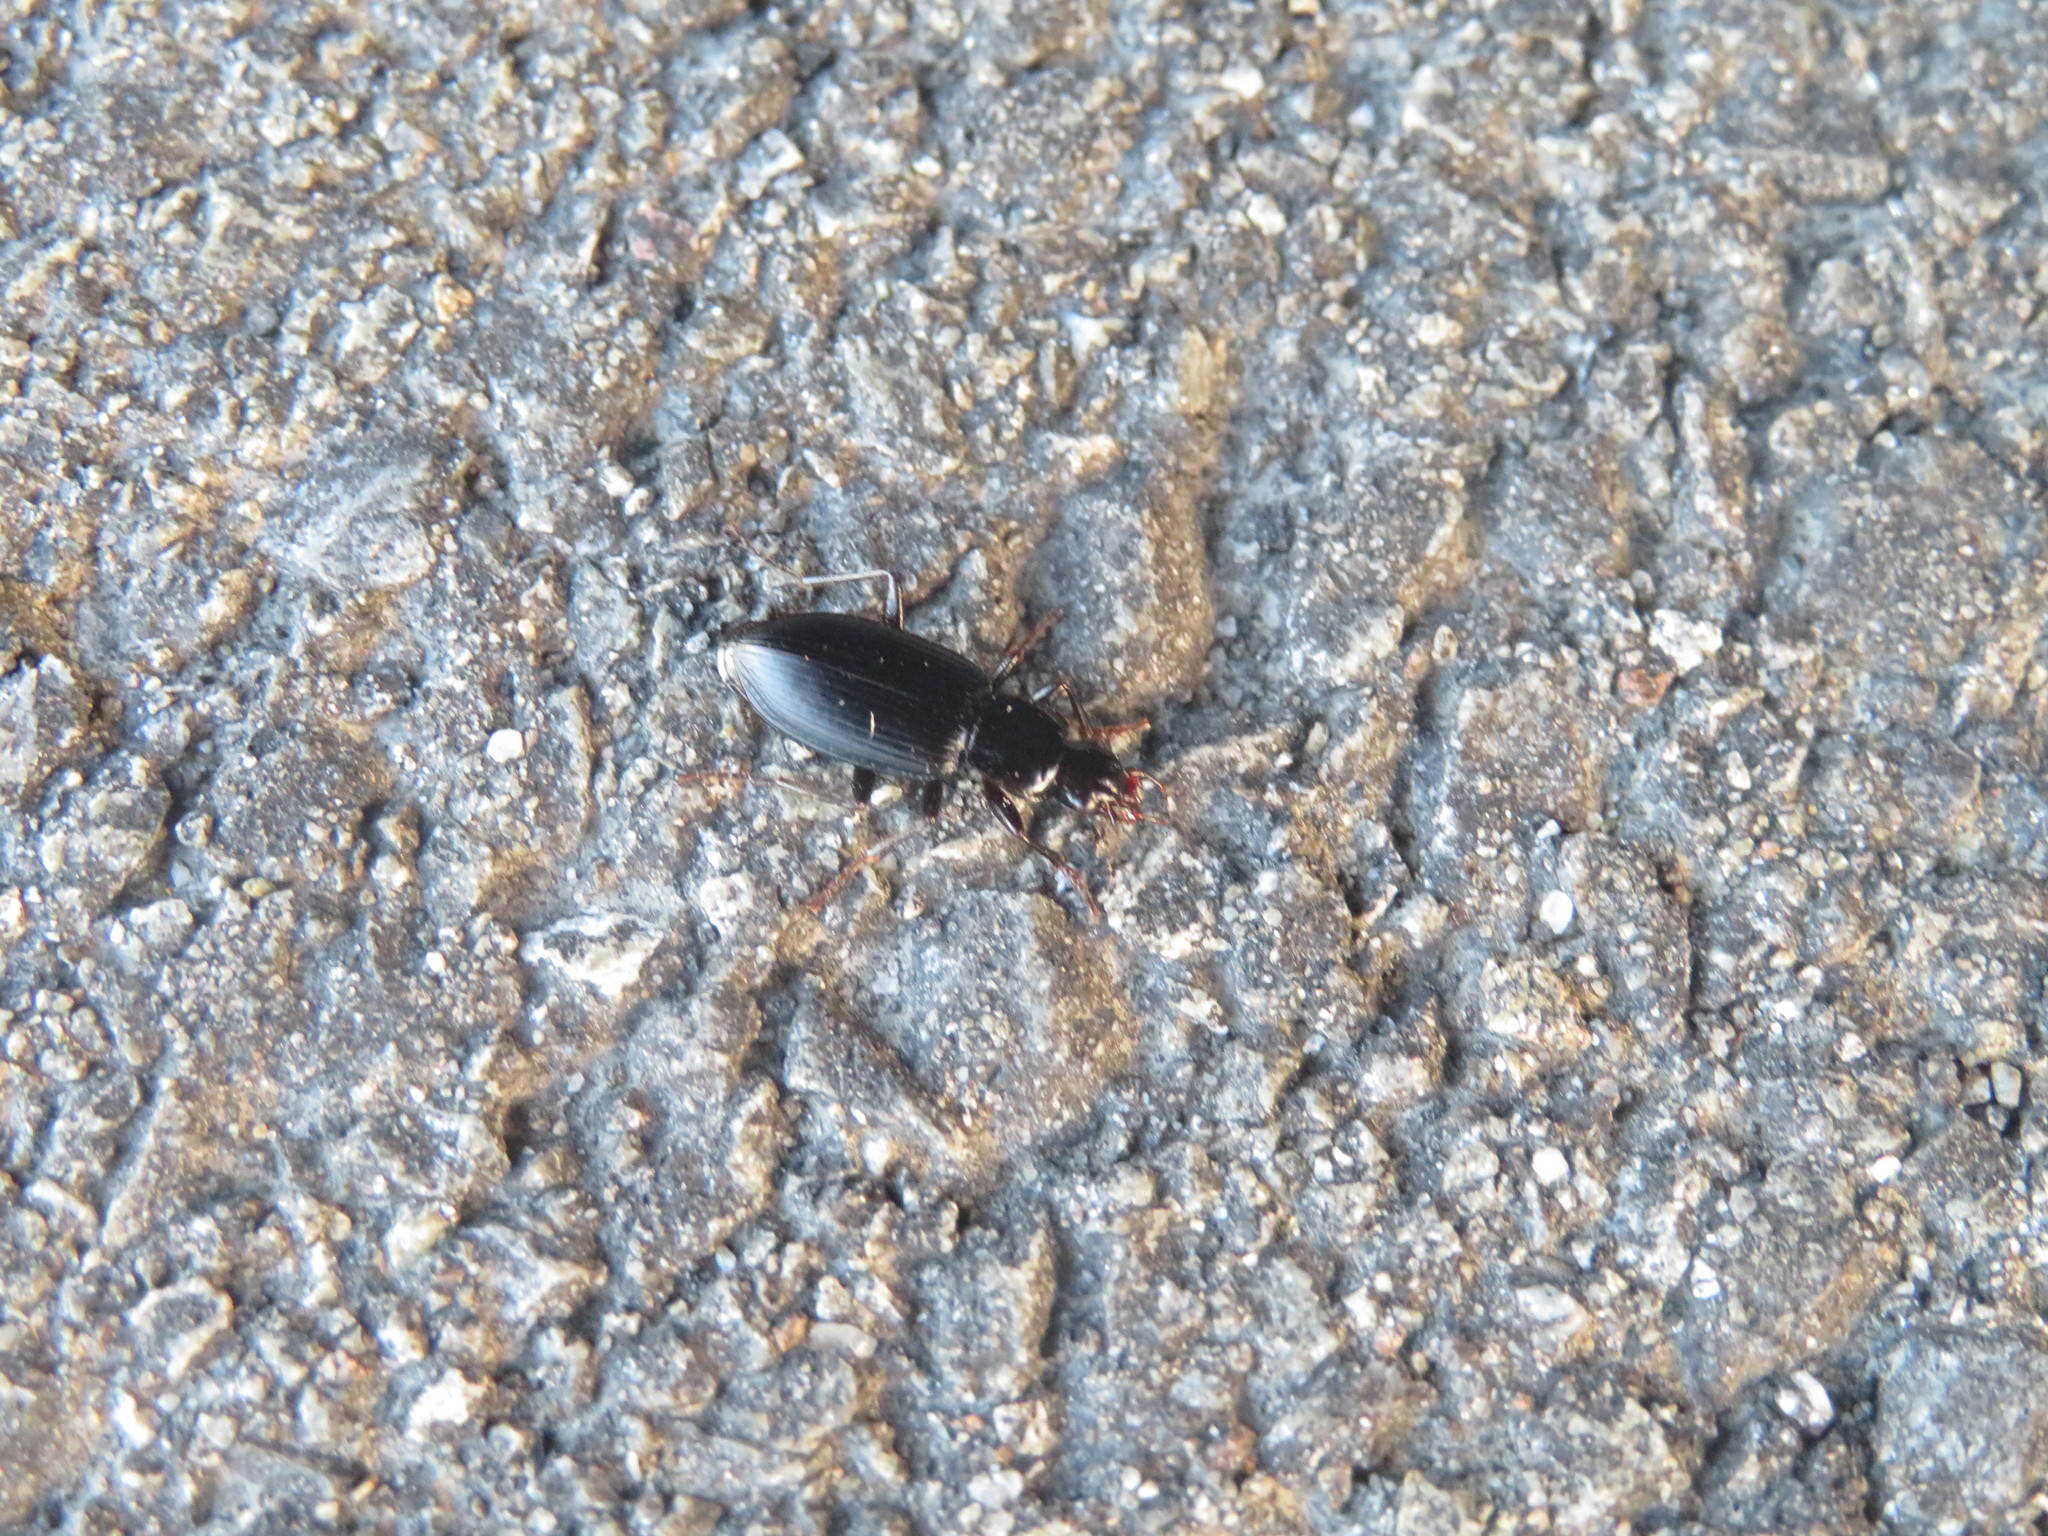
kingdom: Animalia
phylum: Arthropoda
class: Insecta
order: Coleoptera
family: Carabidae
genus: Laemostenus
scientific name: Laemostenus complanatus
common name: Cosmopolitan ground beetle
